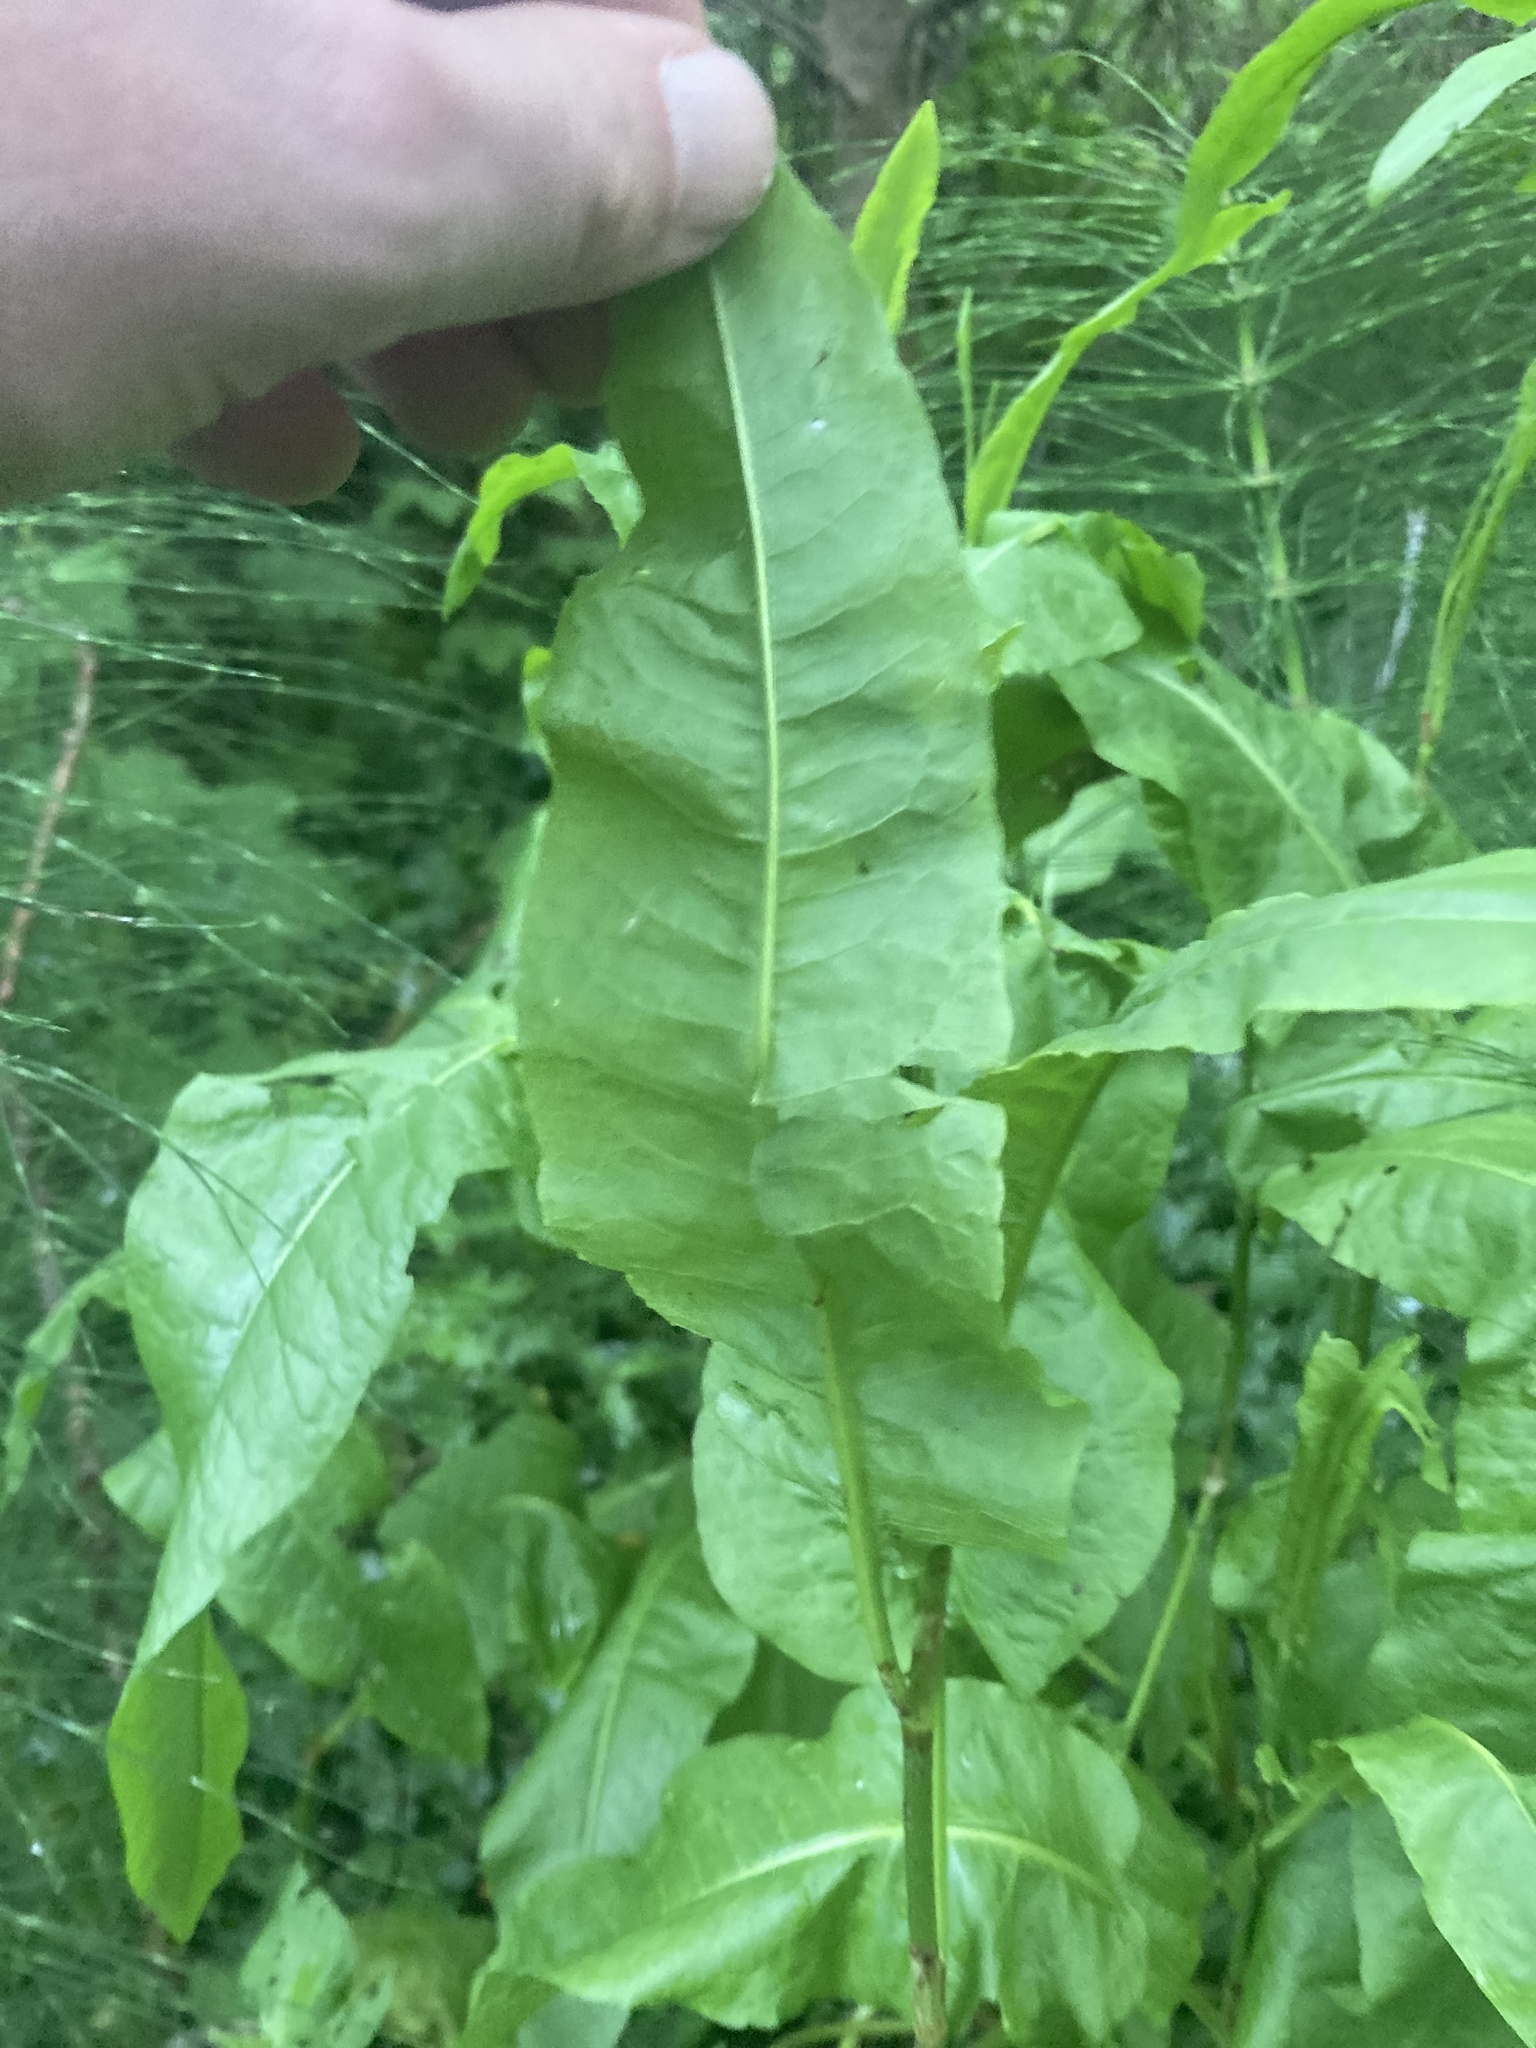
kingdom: Plantae
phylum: Tracheophyta
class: Magnoliopsida
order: Caryophyllales
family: Polygonaceae
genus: Rumex
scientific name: Rumex crispus
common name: Curled dock
